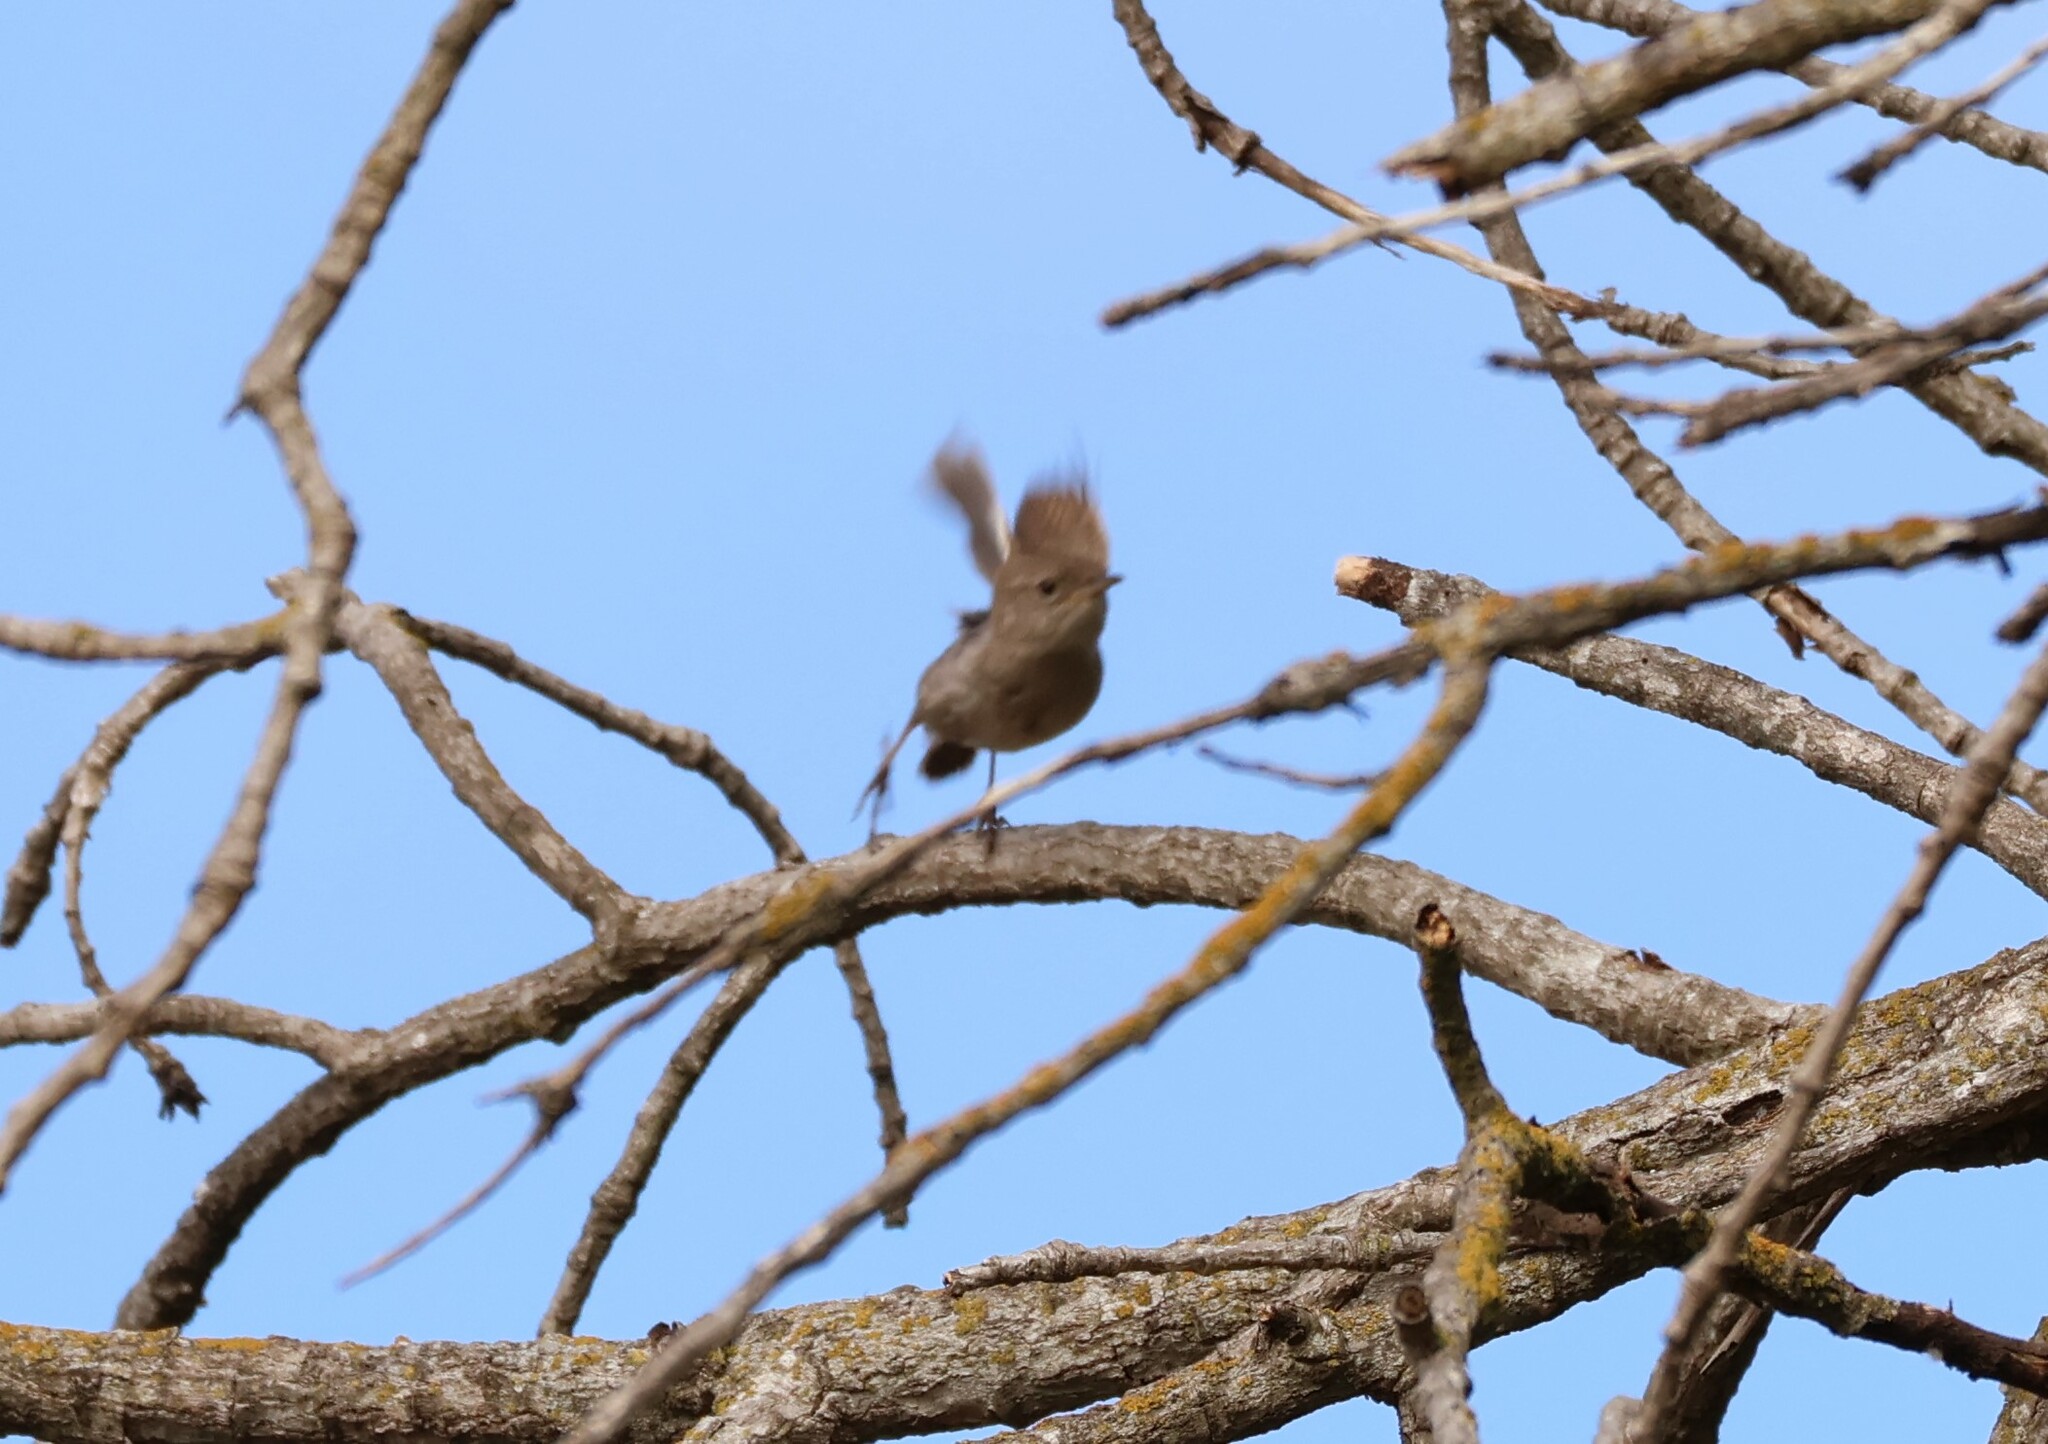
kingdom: Animalia
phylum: Chordata
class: Aves
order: Passeriformes
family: Troglodytidae
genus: Troglodytes
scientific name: Troglodytes aedon
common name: House wren
